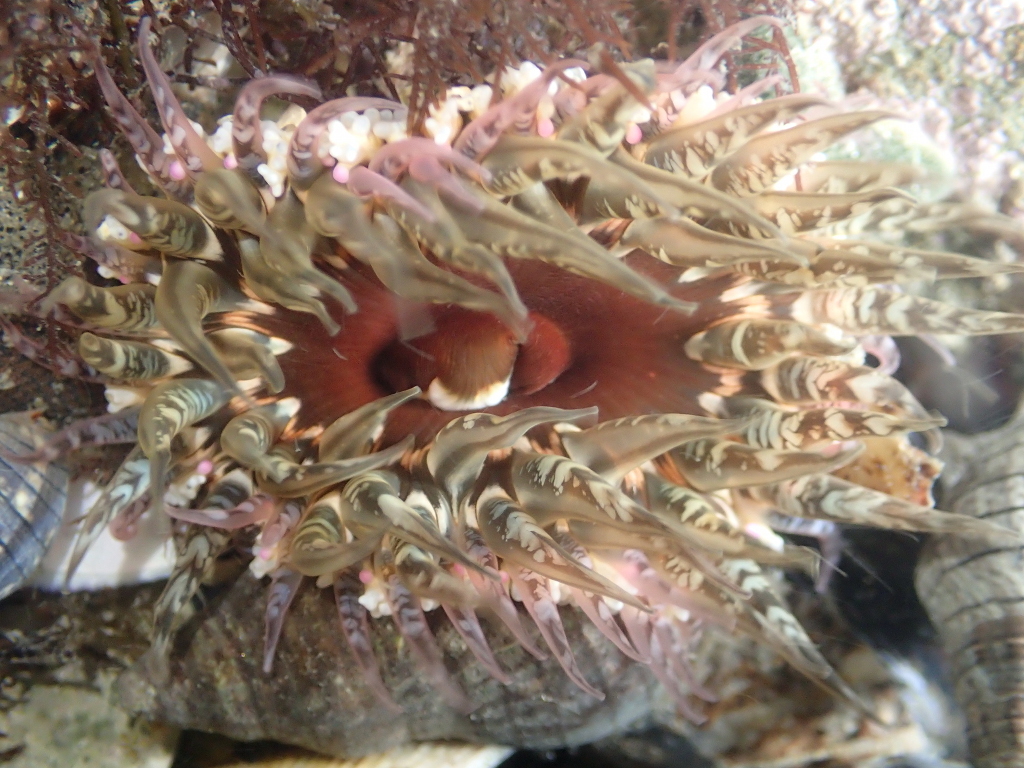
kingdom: Animalia
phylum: Cnidaria
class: Anthozoa
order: Actiniaria
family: Actiniidae
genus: Oulactis
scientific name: Oulactis muscosa
